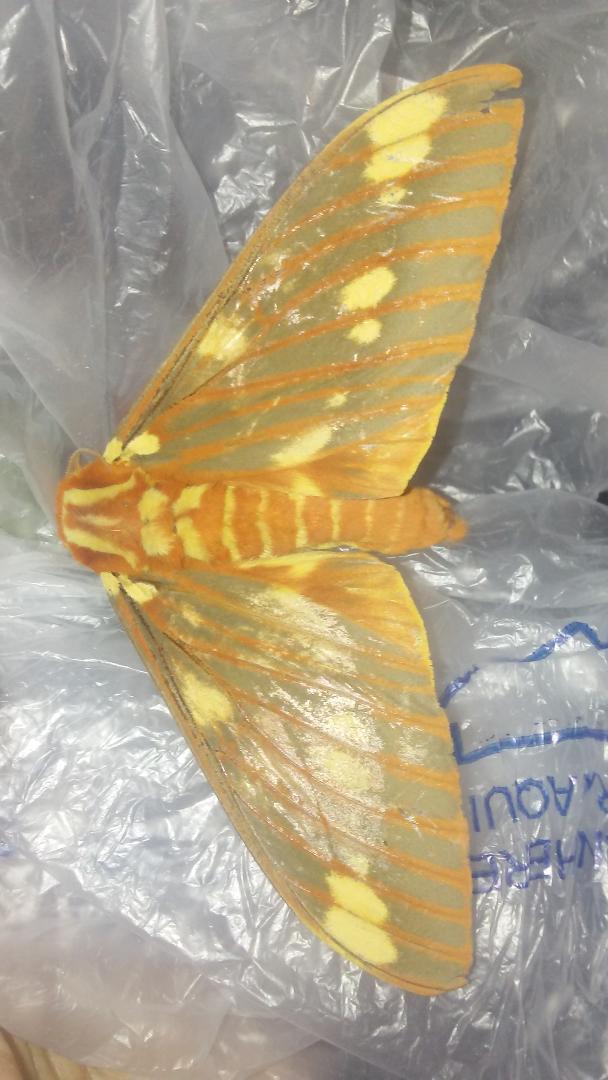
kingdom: Animalia
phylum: Arthropoda
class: Insecta
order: Lepidoptera
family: Saturniidae
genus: Citheronia
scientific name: Citheronia regalis
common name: Hickory horned devil
